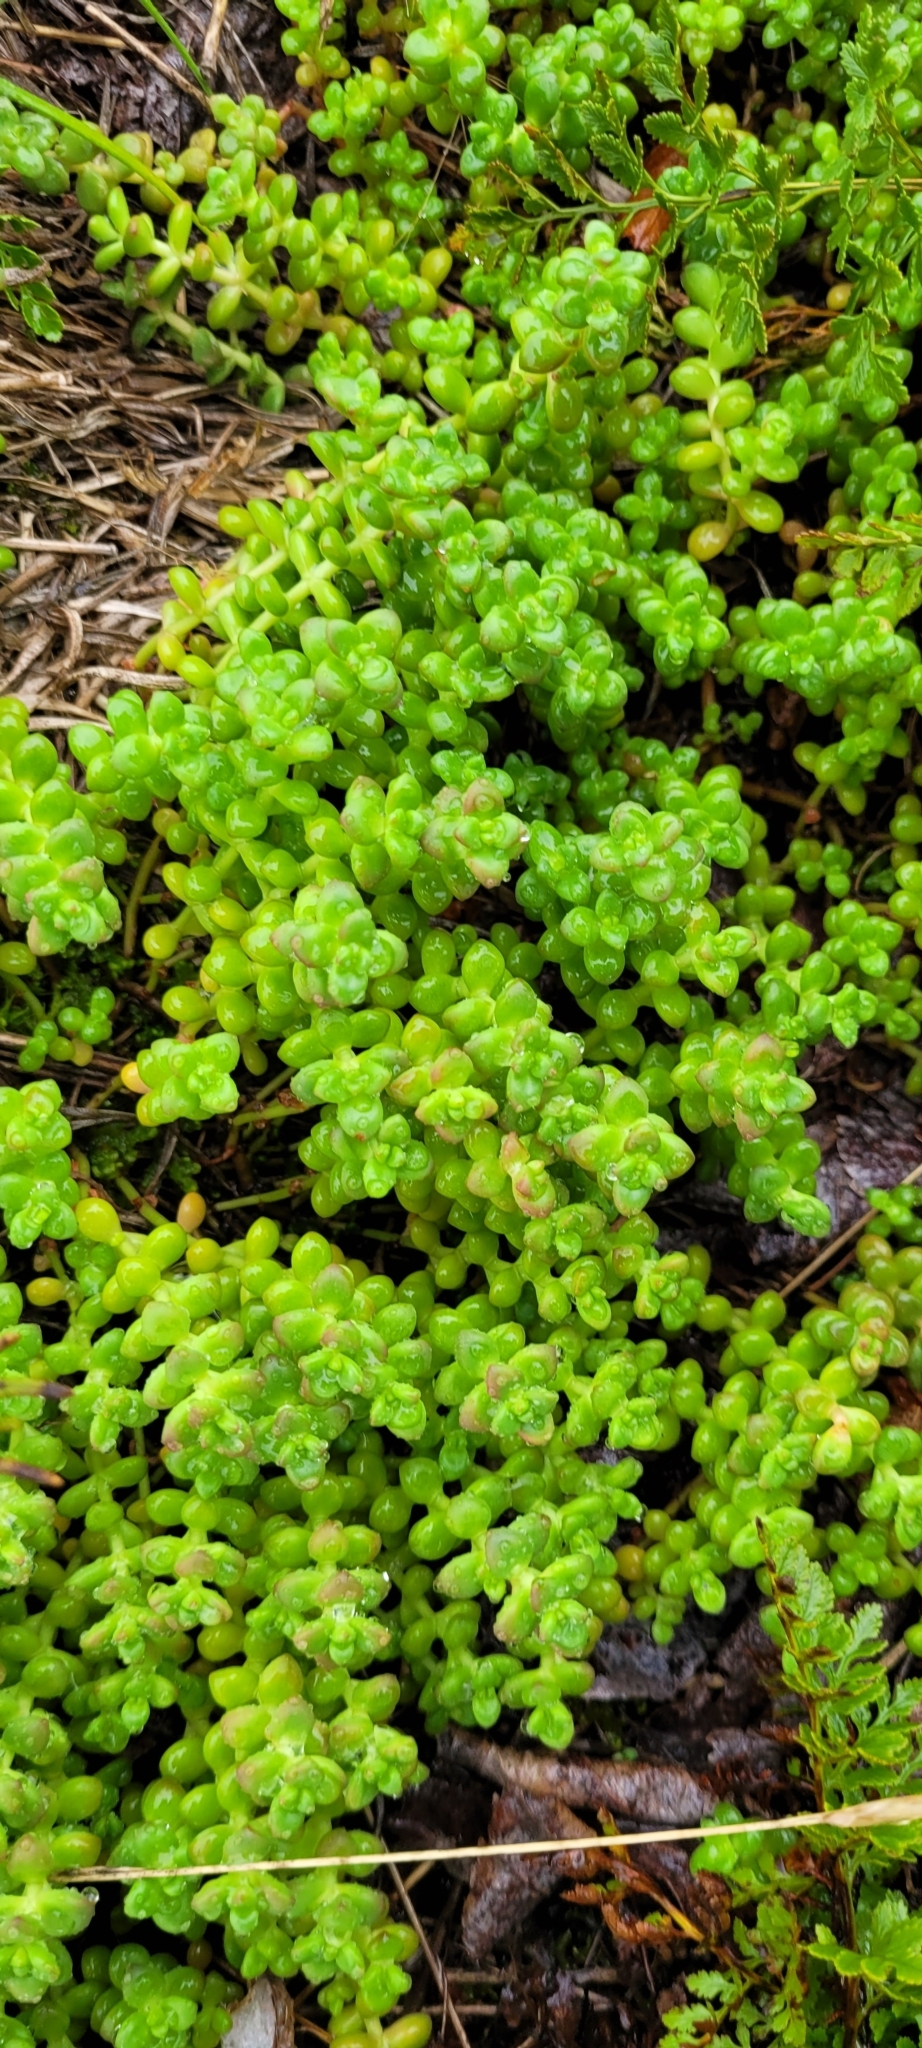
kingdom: Plantae
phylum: Tracheophyta
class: Magnoliopsida
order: Saxifragales
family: Crassulaceae
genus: Sedum
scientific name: Sedum divergens
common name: Cascade stonecrop
